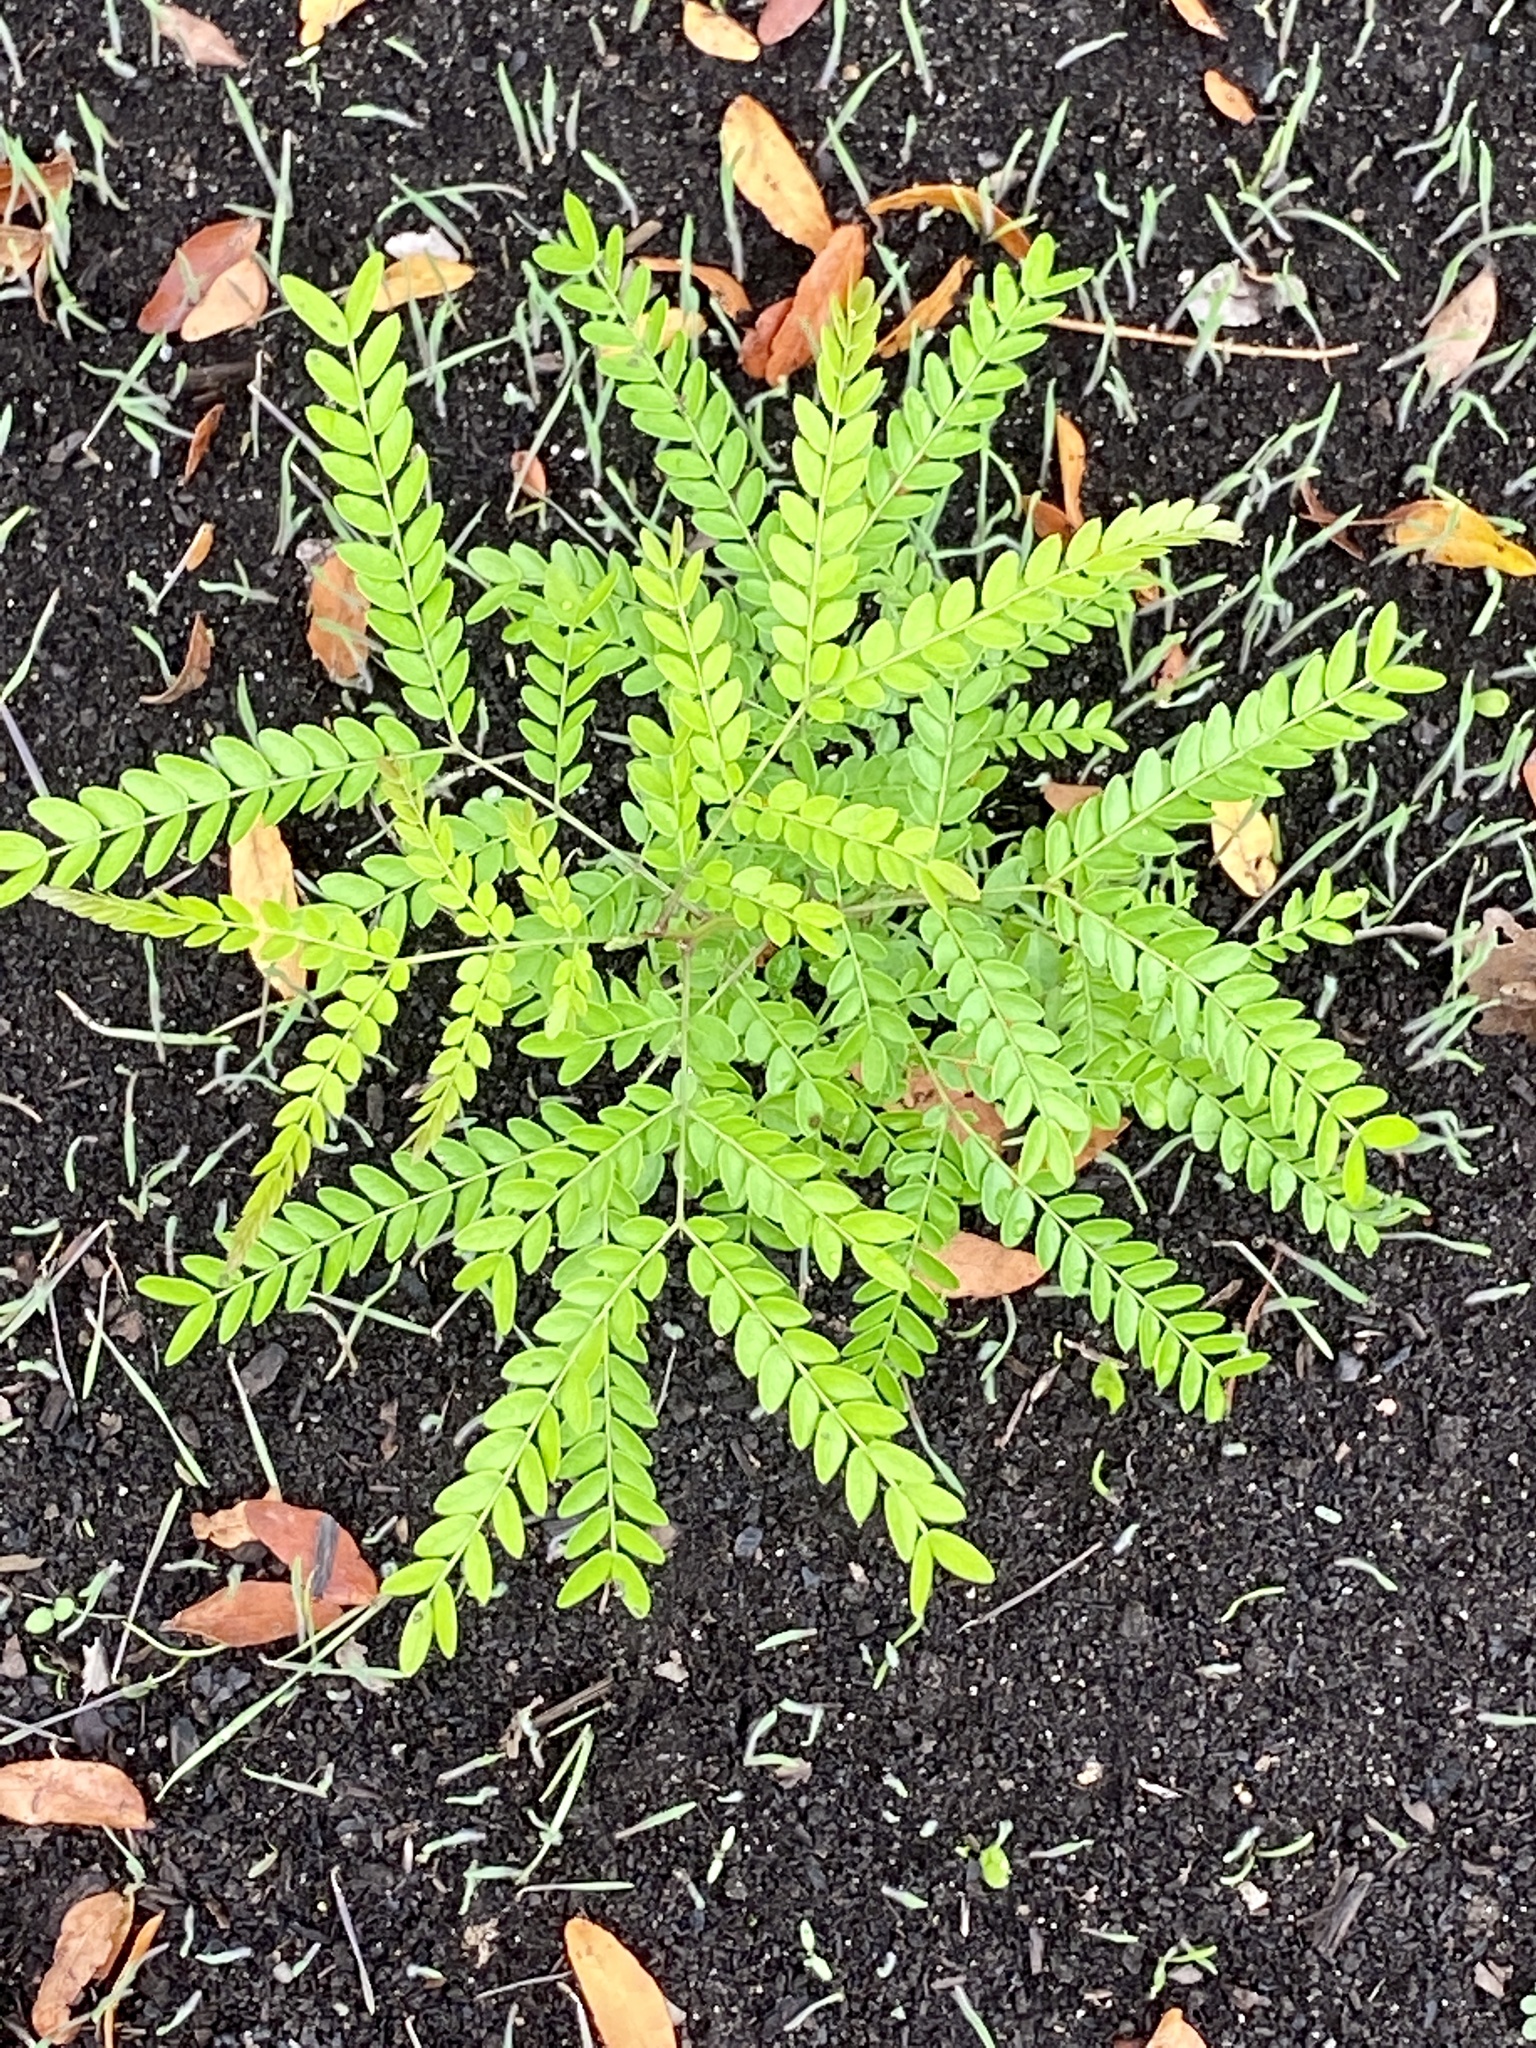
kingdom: Plantae
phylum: Tracheophyta
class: Magnoliopsida
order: Fabales
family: Fabaceae
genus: Gleditsia
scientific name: Gleditsia triacanthos
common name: Common honeylocust
